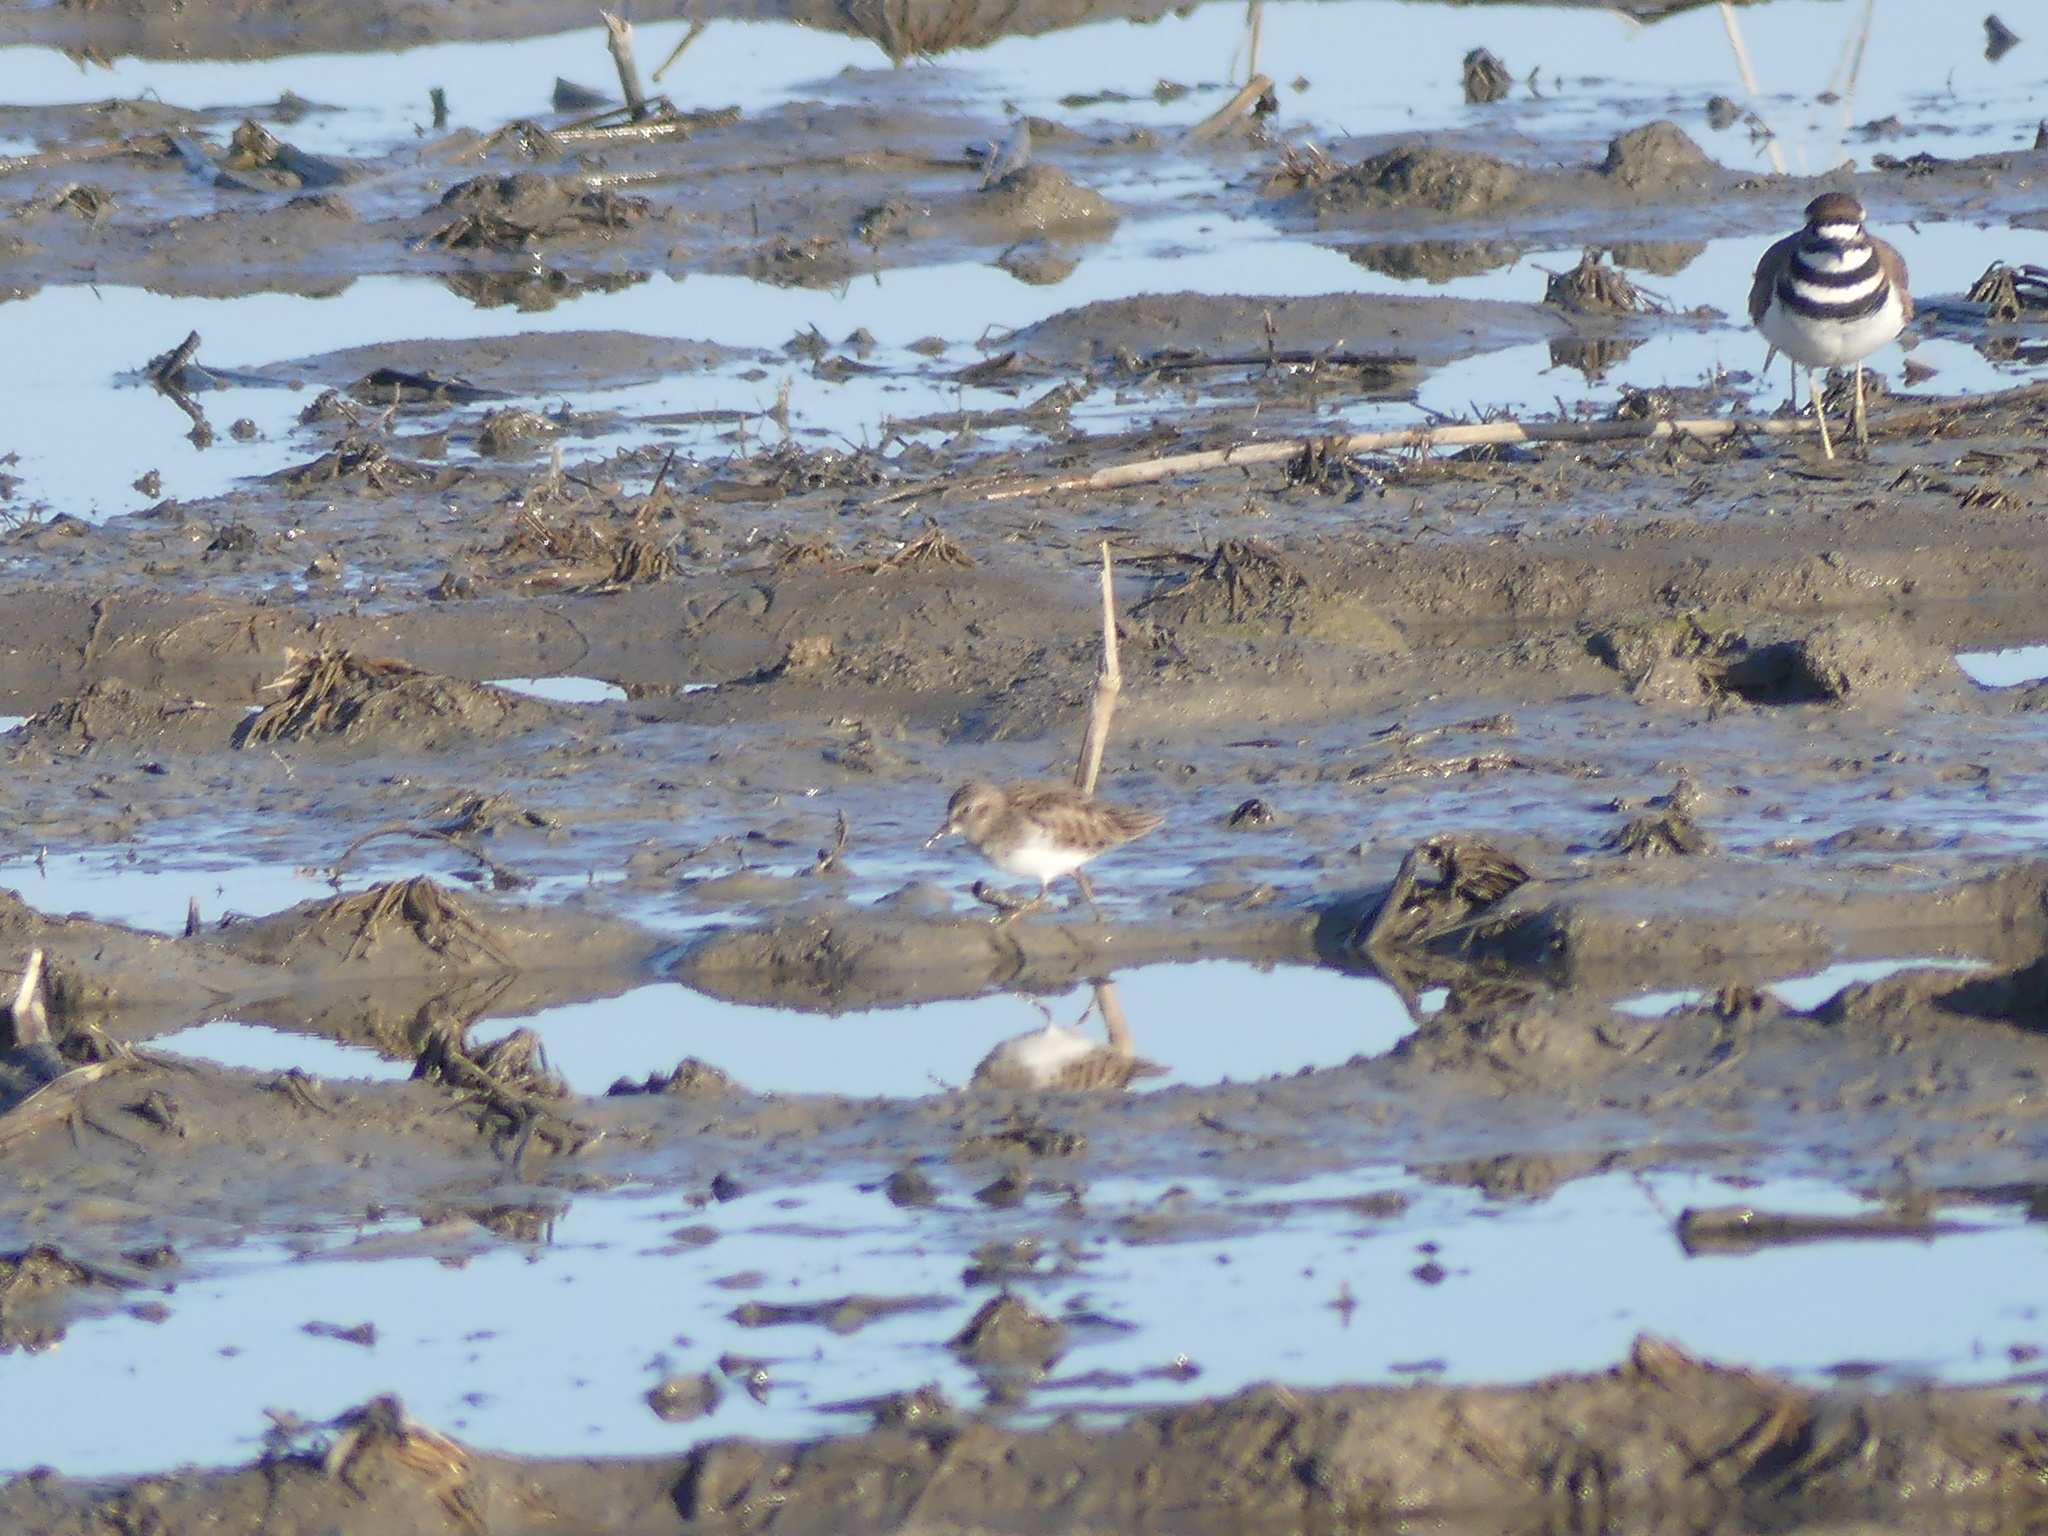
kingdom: Animalia
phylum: Chordata
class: Aves
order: Charadriiformes
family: Scolopacidae
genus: Calidris
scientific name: Calidris minutilla
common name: Least sandpiper
